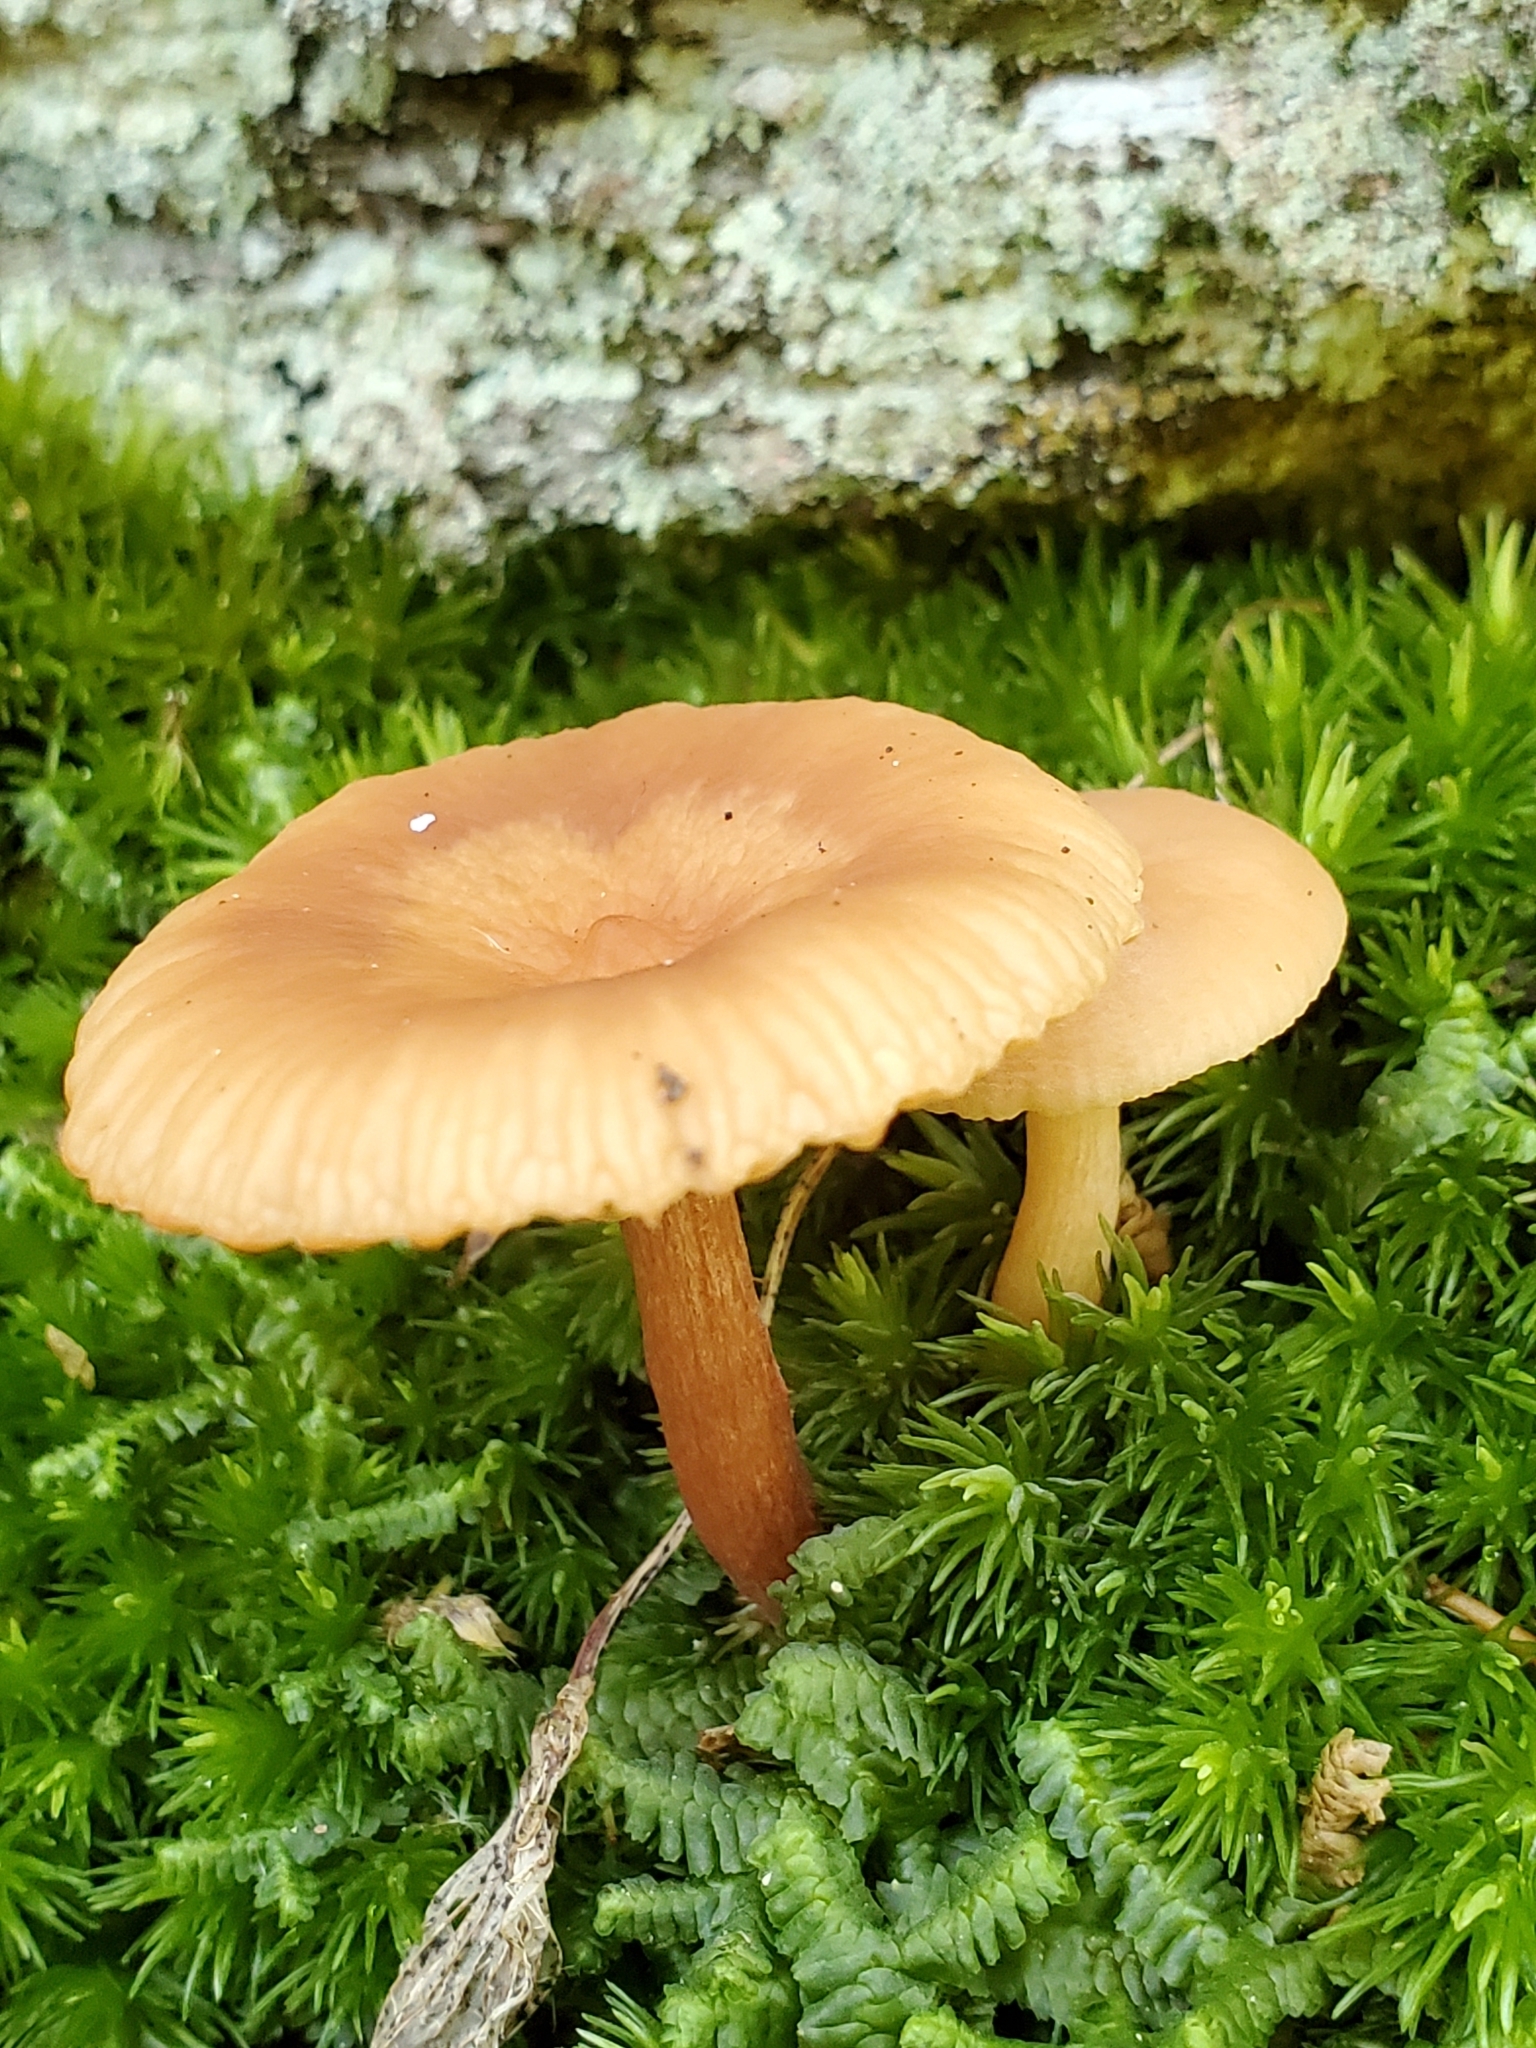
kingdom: Fungi
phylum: Basidiomycota
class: Agaricomycetes
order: Agaricales
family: Hydnangiaceae
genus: Laccaria
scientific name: Laccaria laccata
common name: Deceiver
